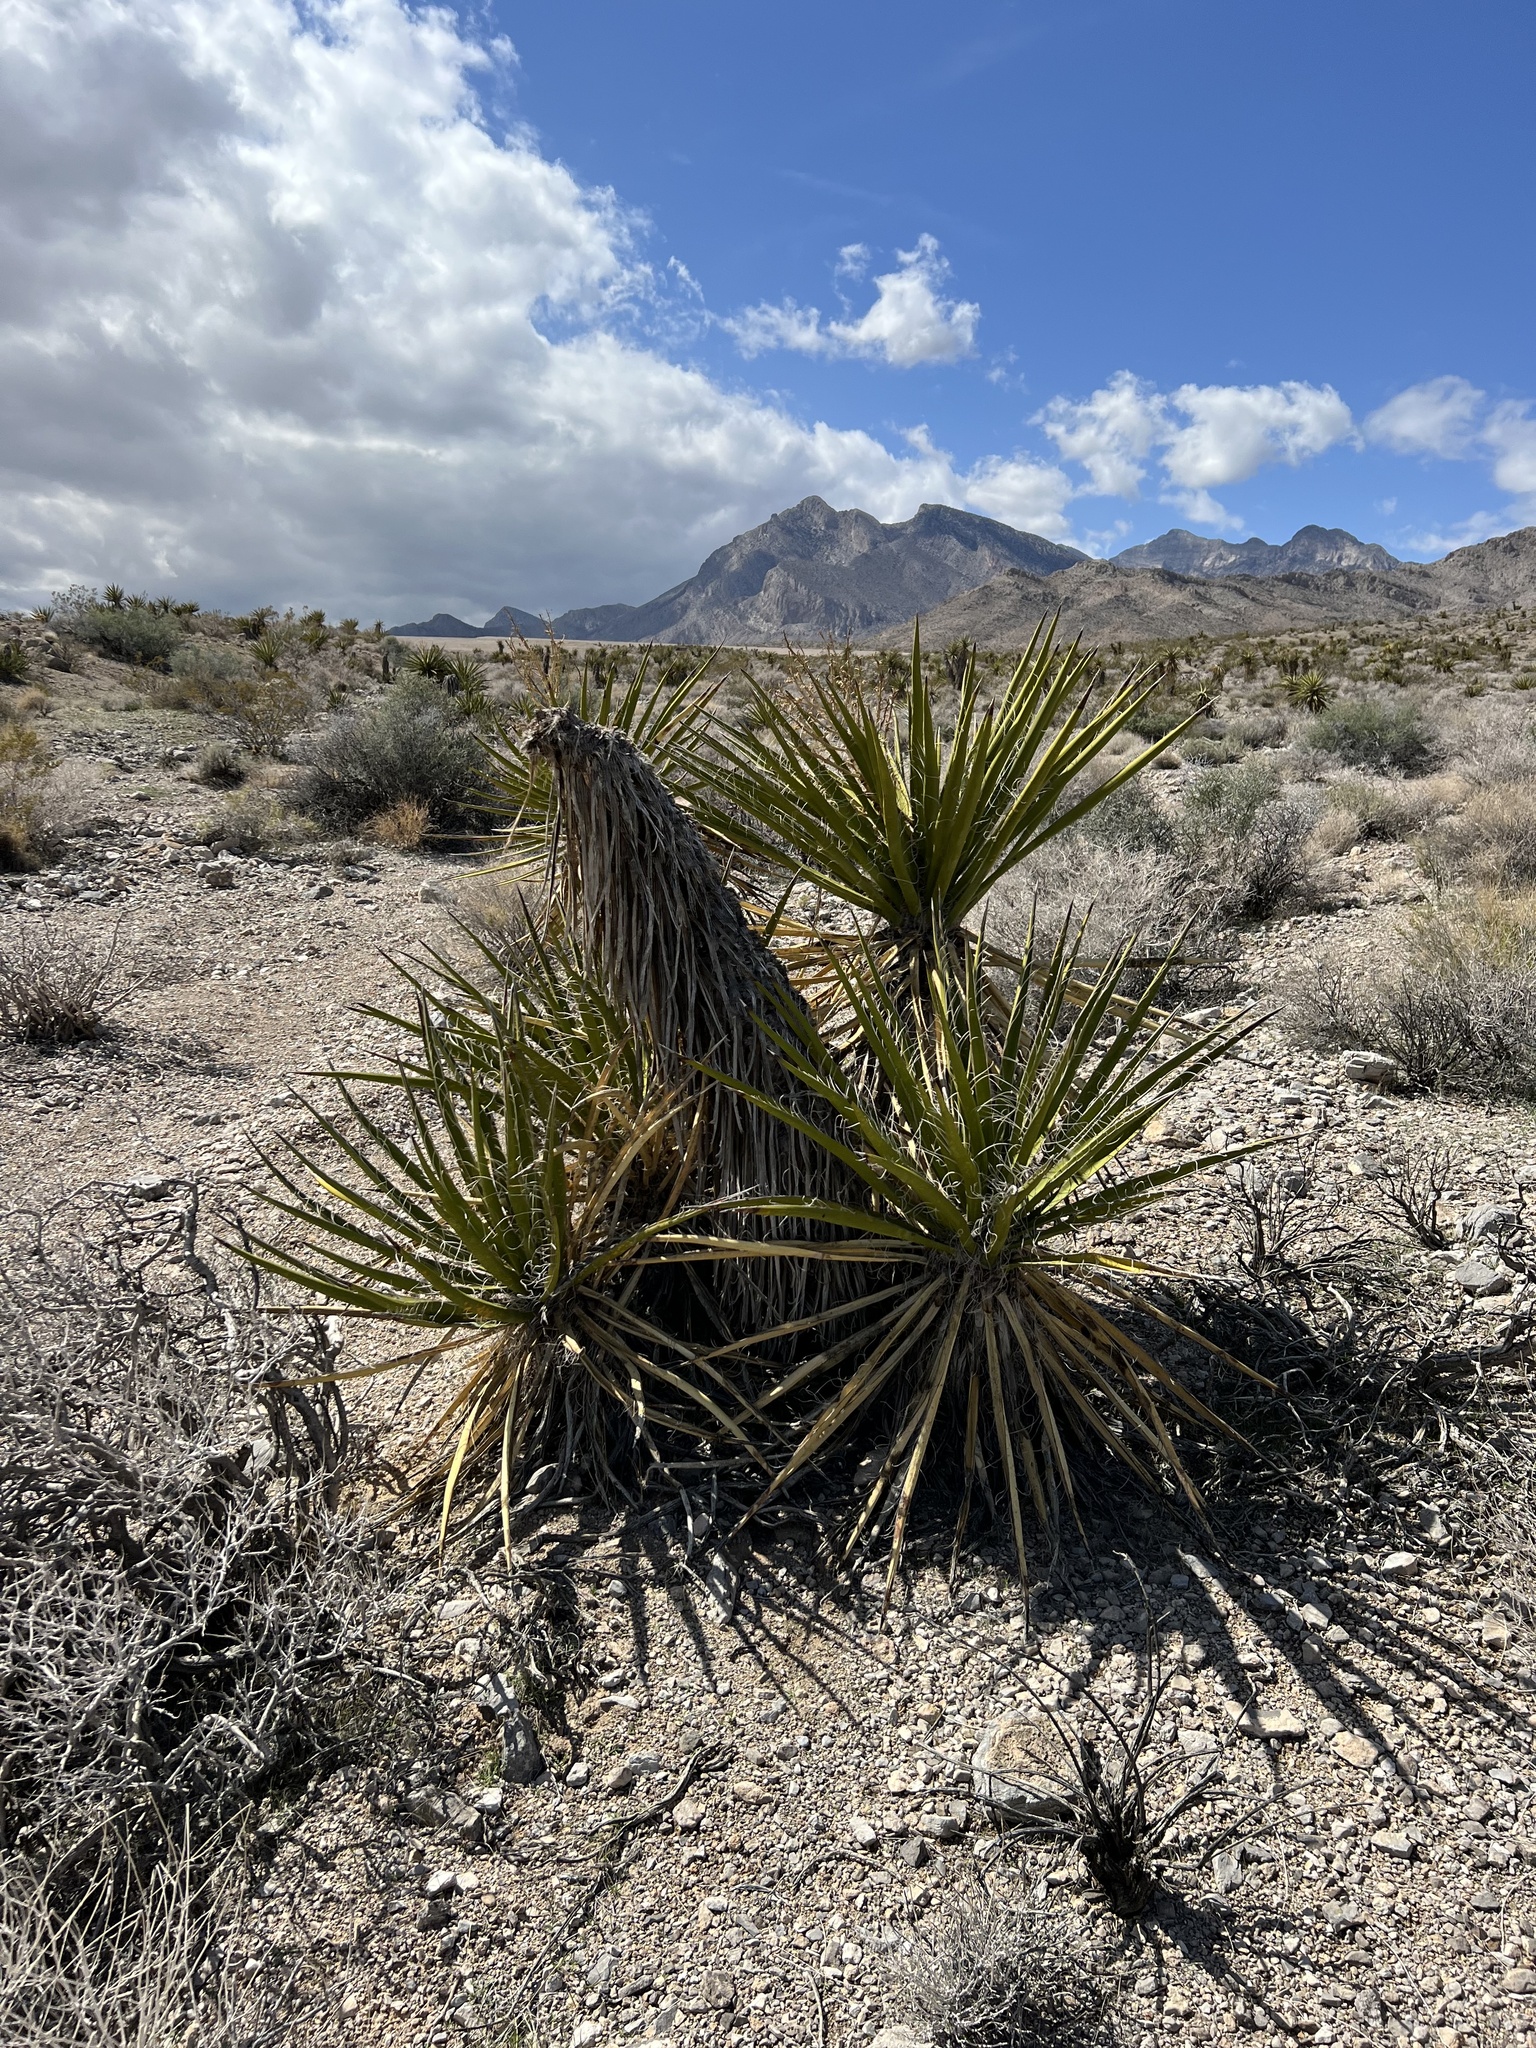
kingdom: Plantae
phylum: Tracheophyta
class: Liliopsida
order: Asparagales
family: Asparagaceae
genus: Yucca
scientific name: Yucca schidigera
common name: Mojave yucca
